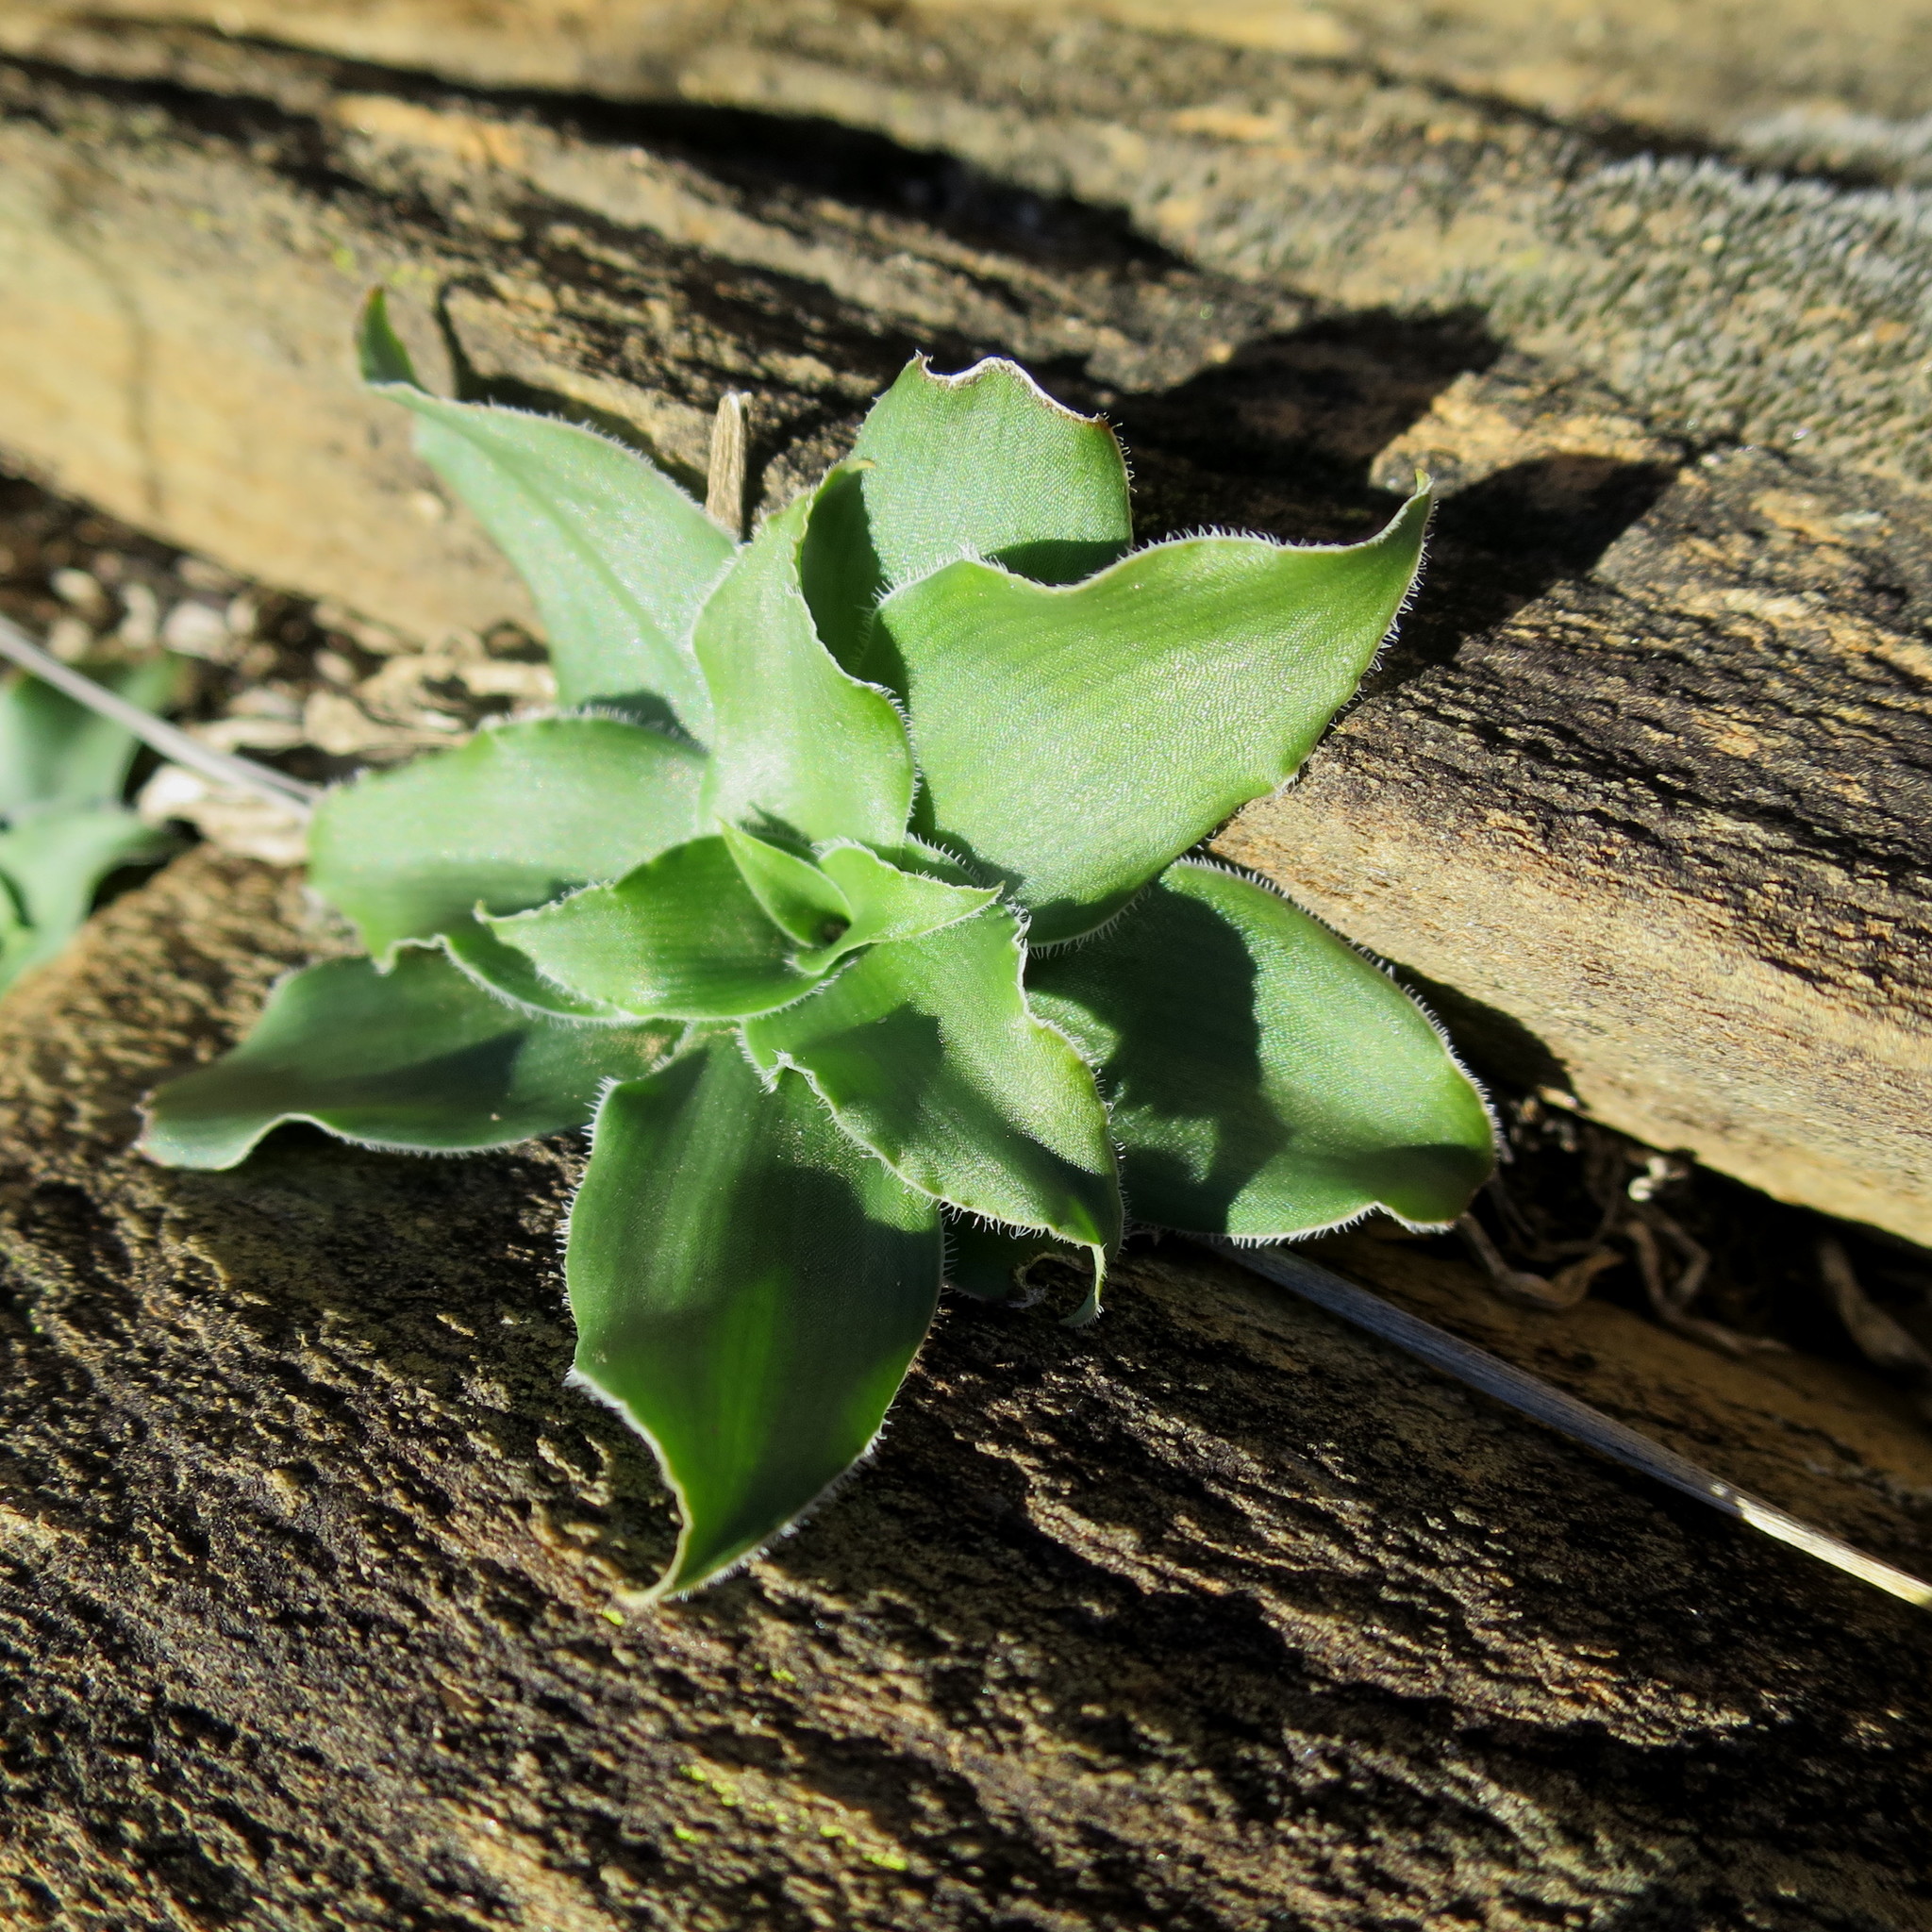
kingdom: Plantae
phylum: Tracheophyta
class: Liliopsida
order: Asparagales
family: Asparagaceae
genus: Chlorophytum
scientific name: Chlorophytum crispum
